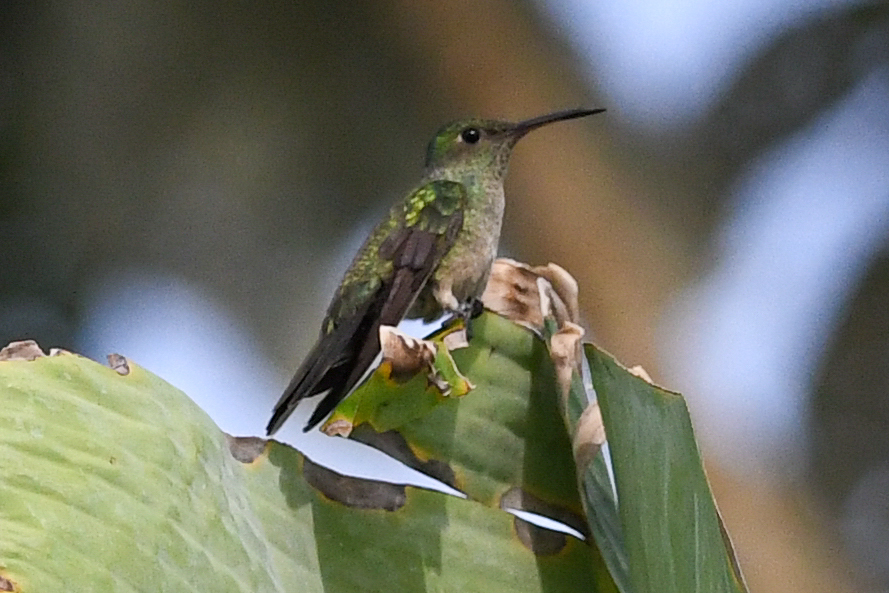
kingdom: Animalia
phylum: Chordata
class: Aves
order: Apodiformes
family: Trochilidae
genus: Phaeochroa
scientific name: Phaeochroa cuvierii
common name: Scaly-breasted hummingbird
